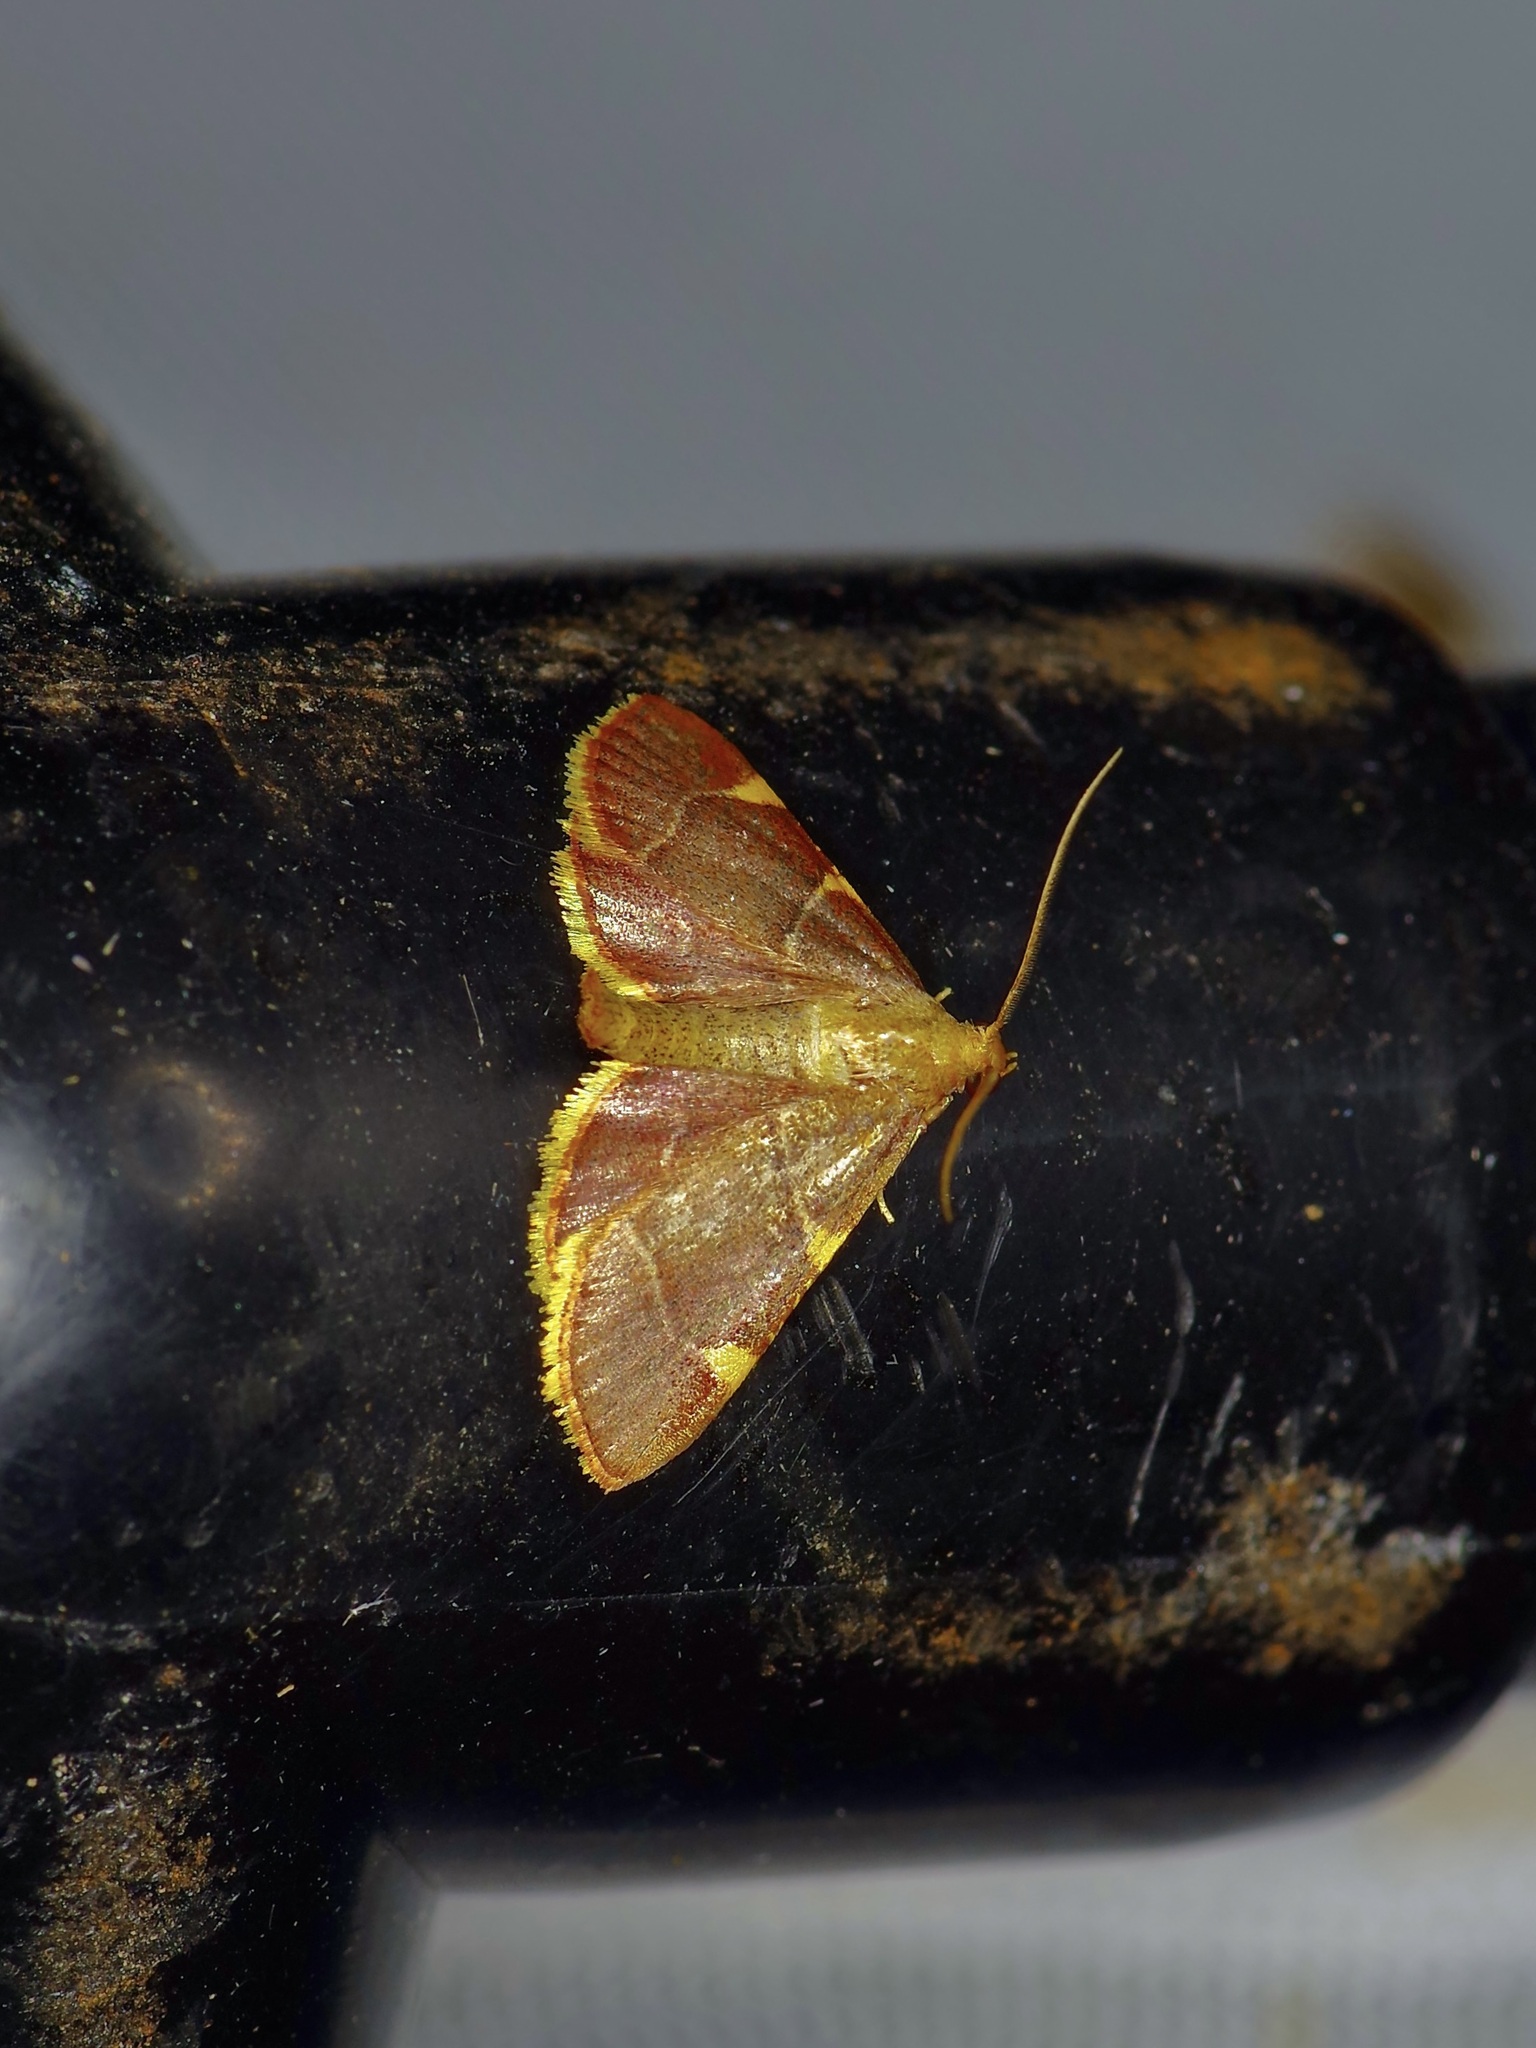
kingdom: Animalia
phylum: Arthropoda
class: Insecta
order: Lepidoptera
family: Pyralidae
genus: Hypsopygia
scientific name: Hypsopygia olinalis
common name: Yellow-fringed dolichomia moth
